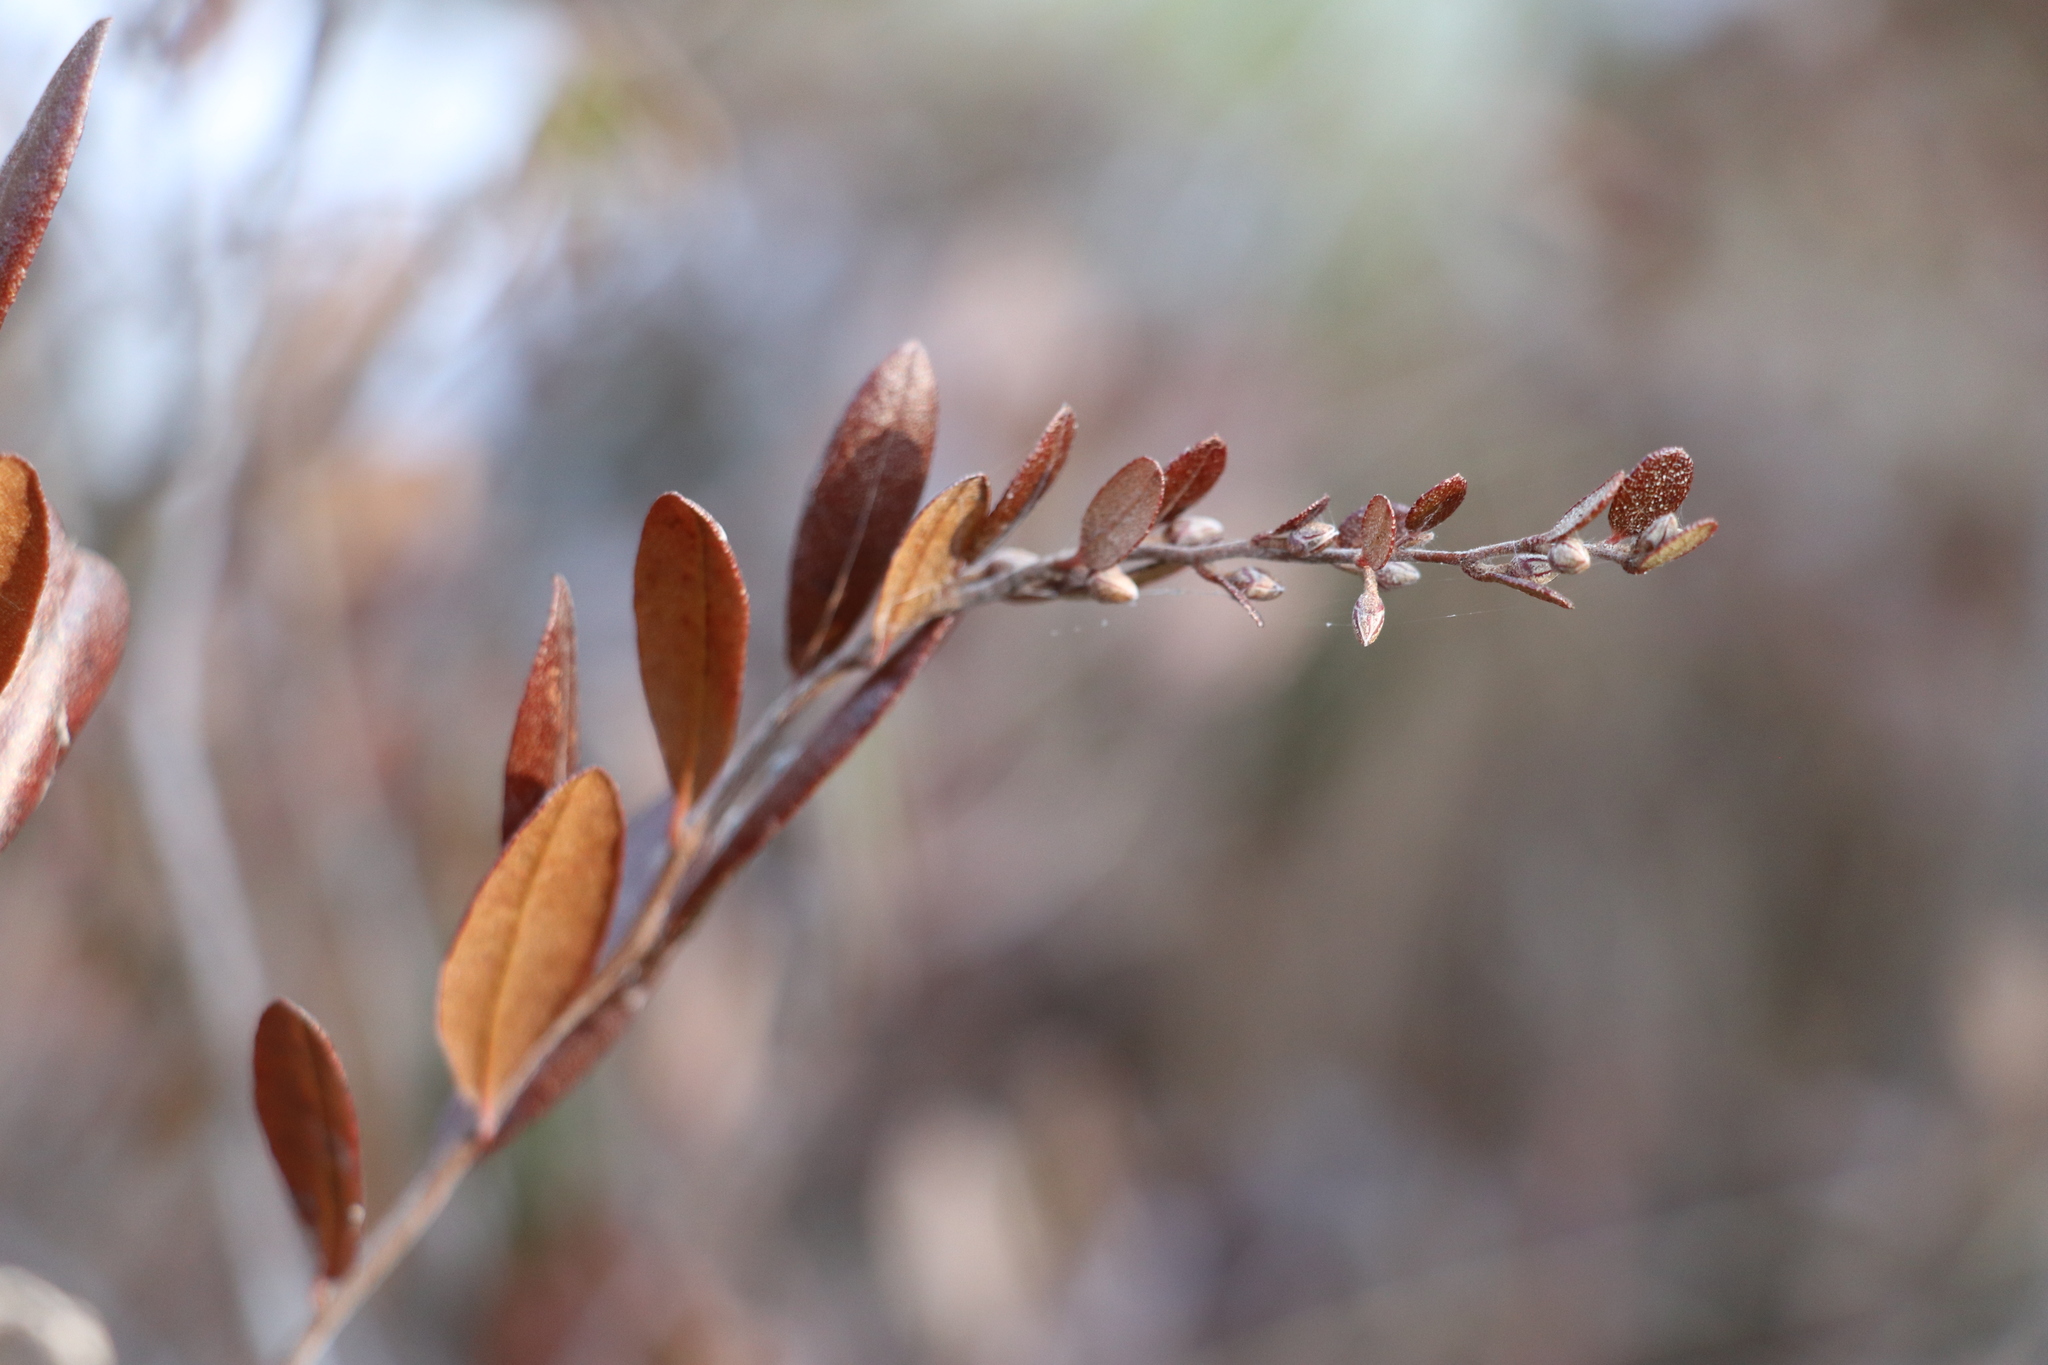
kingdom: Plantae
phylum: Tracheophyta
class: Magnoliopsida
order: Ericales
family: Ericaceae
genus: Chamaedaphne
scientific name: Chamaedaphne calyculata
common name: Leatherleaf
